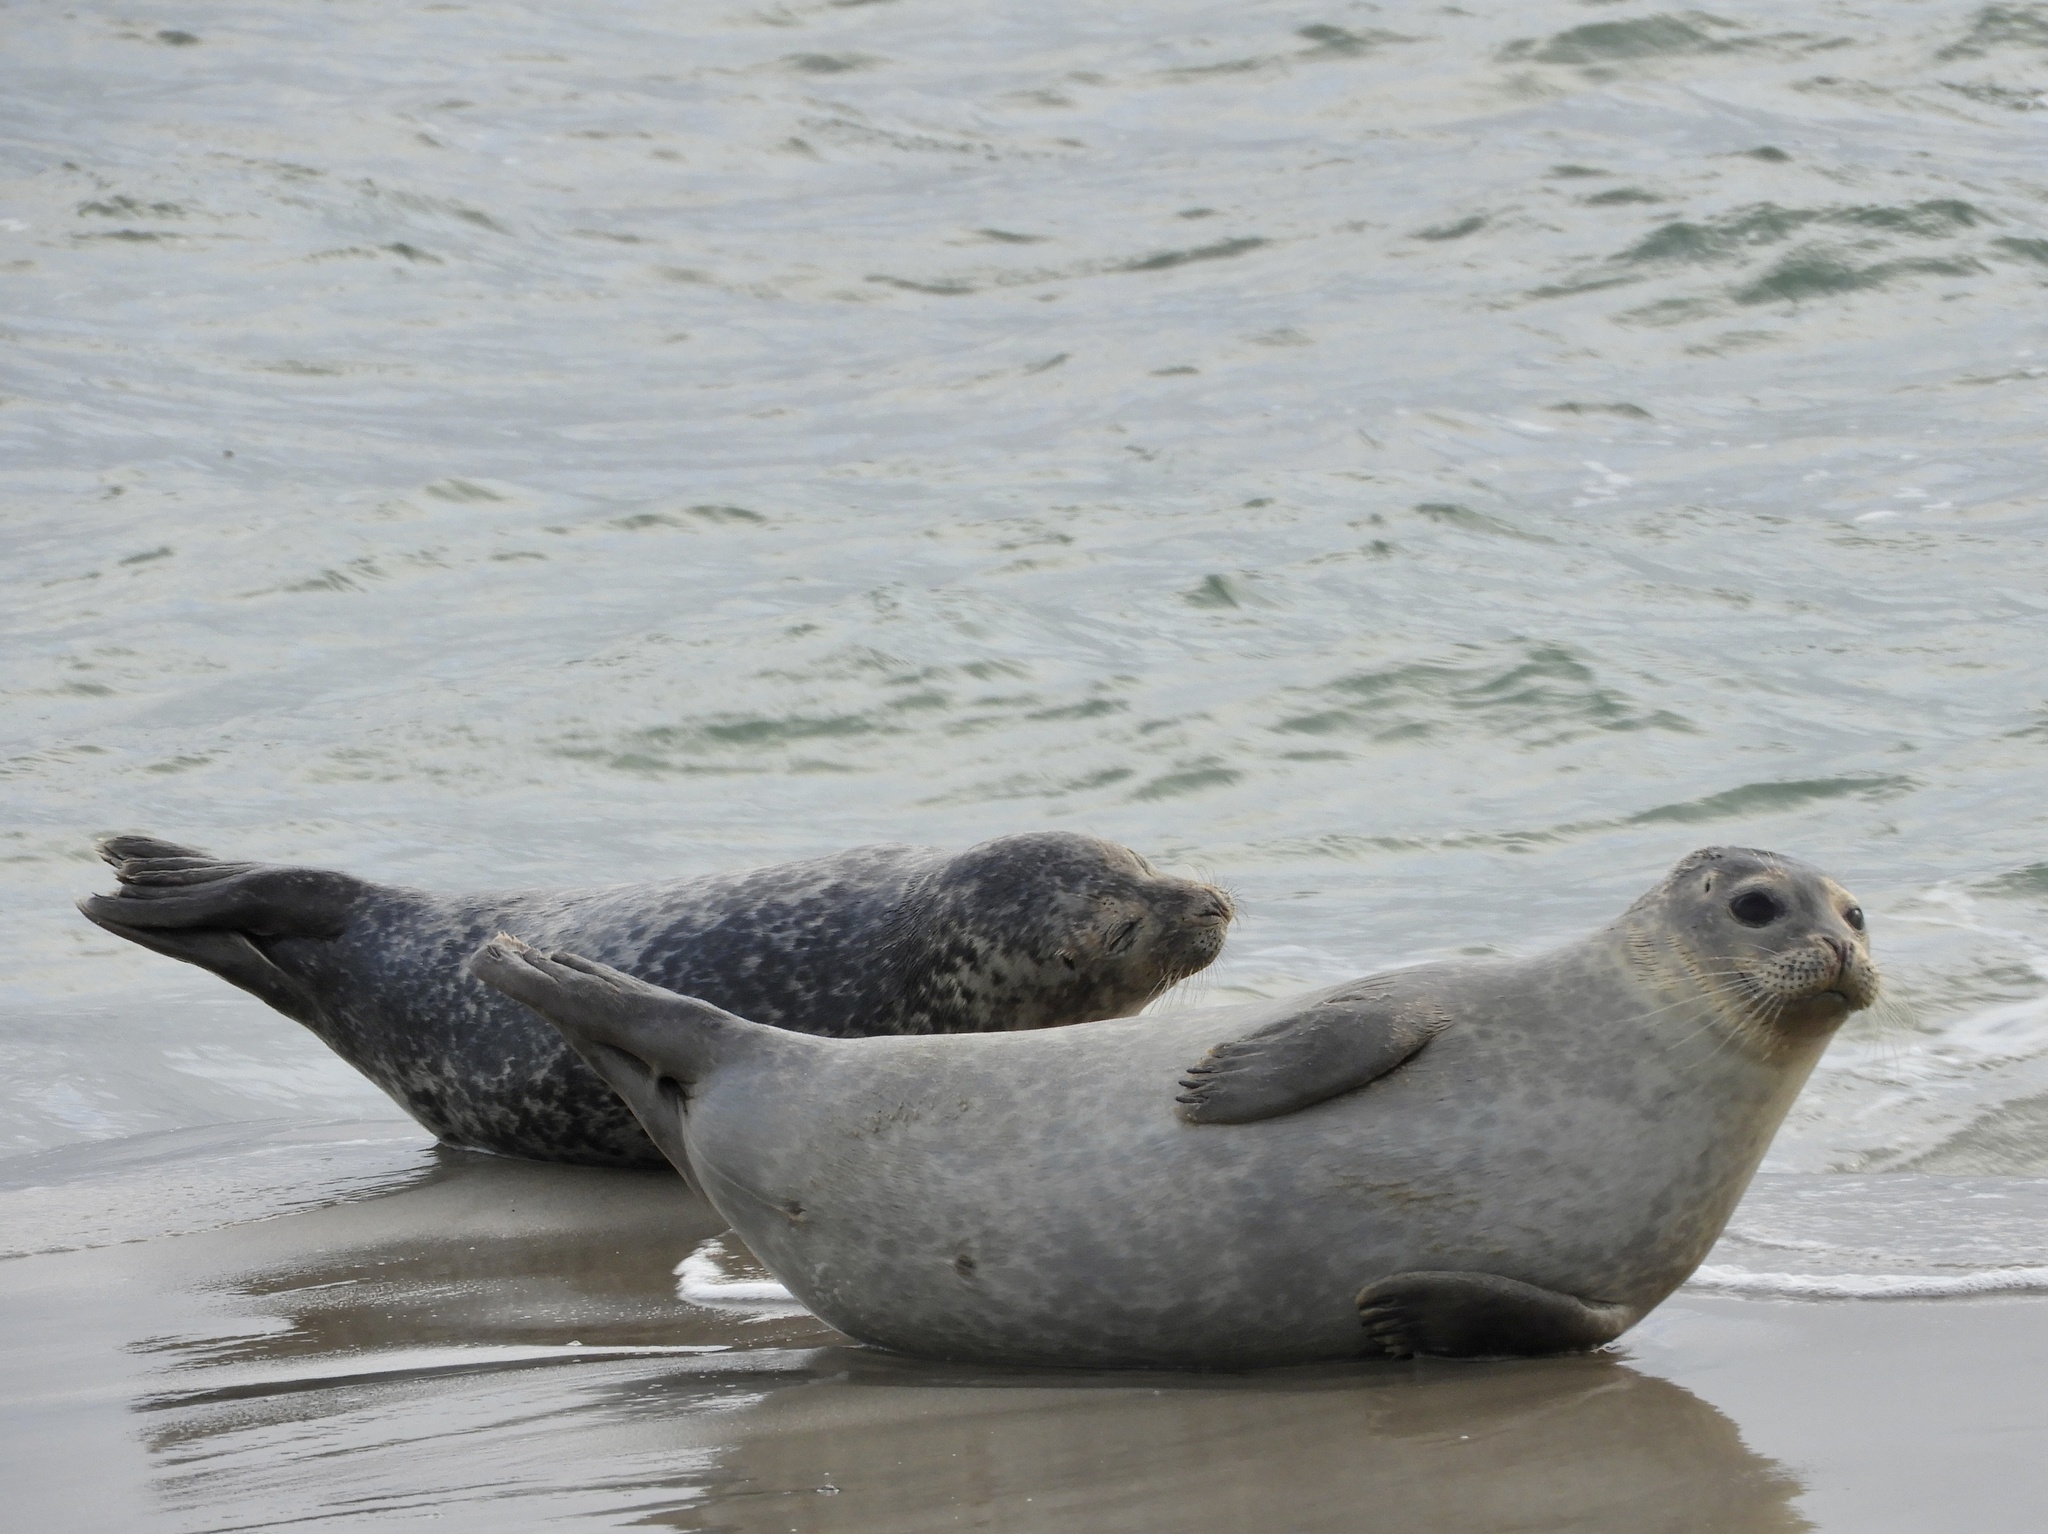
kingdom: Animalia
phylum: Chordata
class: Mammalia
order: Carnivora
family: Phocidae
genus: Phoca
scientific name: Phoca vitulina
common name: Harbor seal
